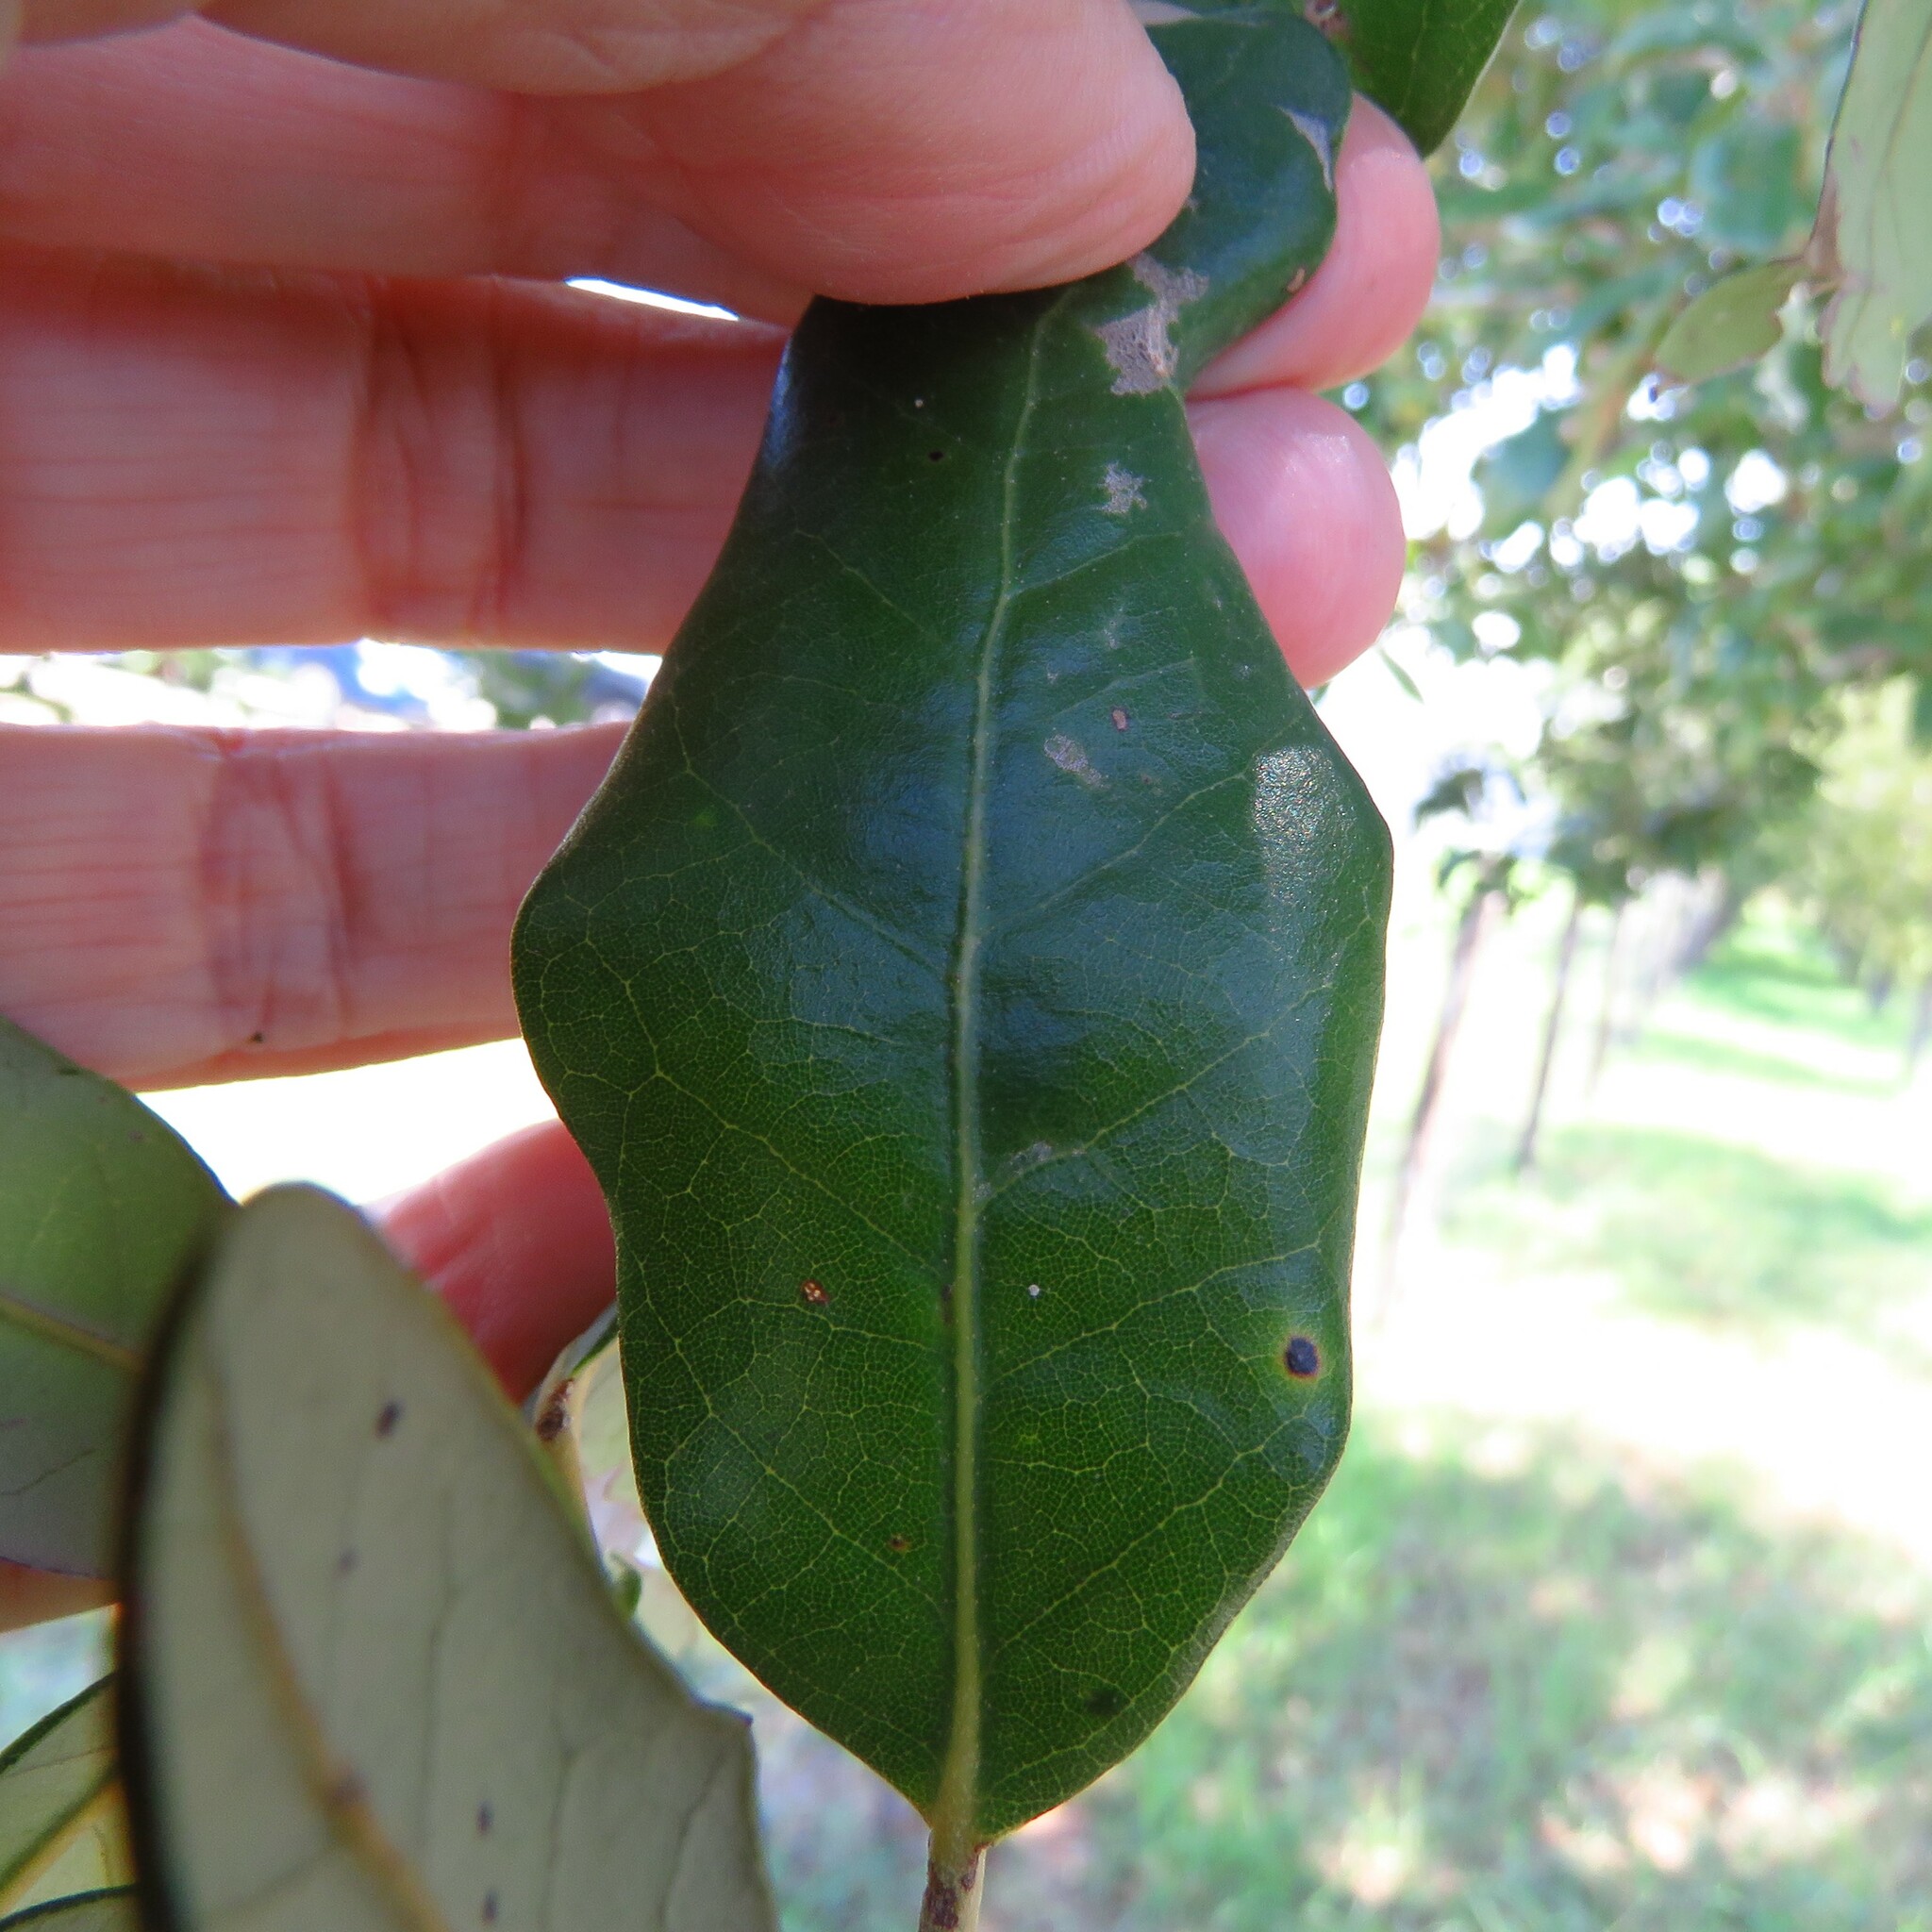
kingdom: Animalia
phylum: Arthropoda
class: Insecta
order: Hymenoptera
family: Cynipidae
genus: Andricus
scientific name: Andricus Druon quercuslanigerum
